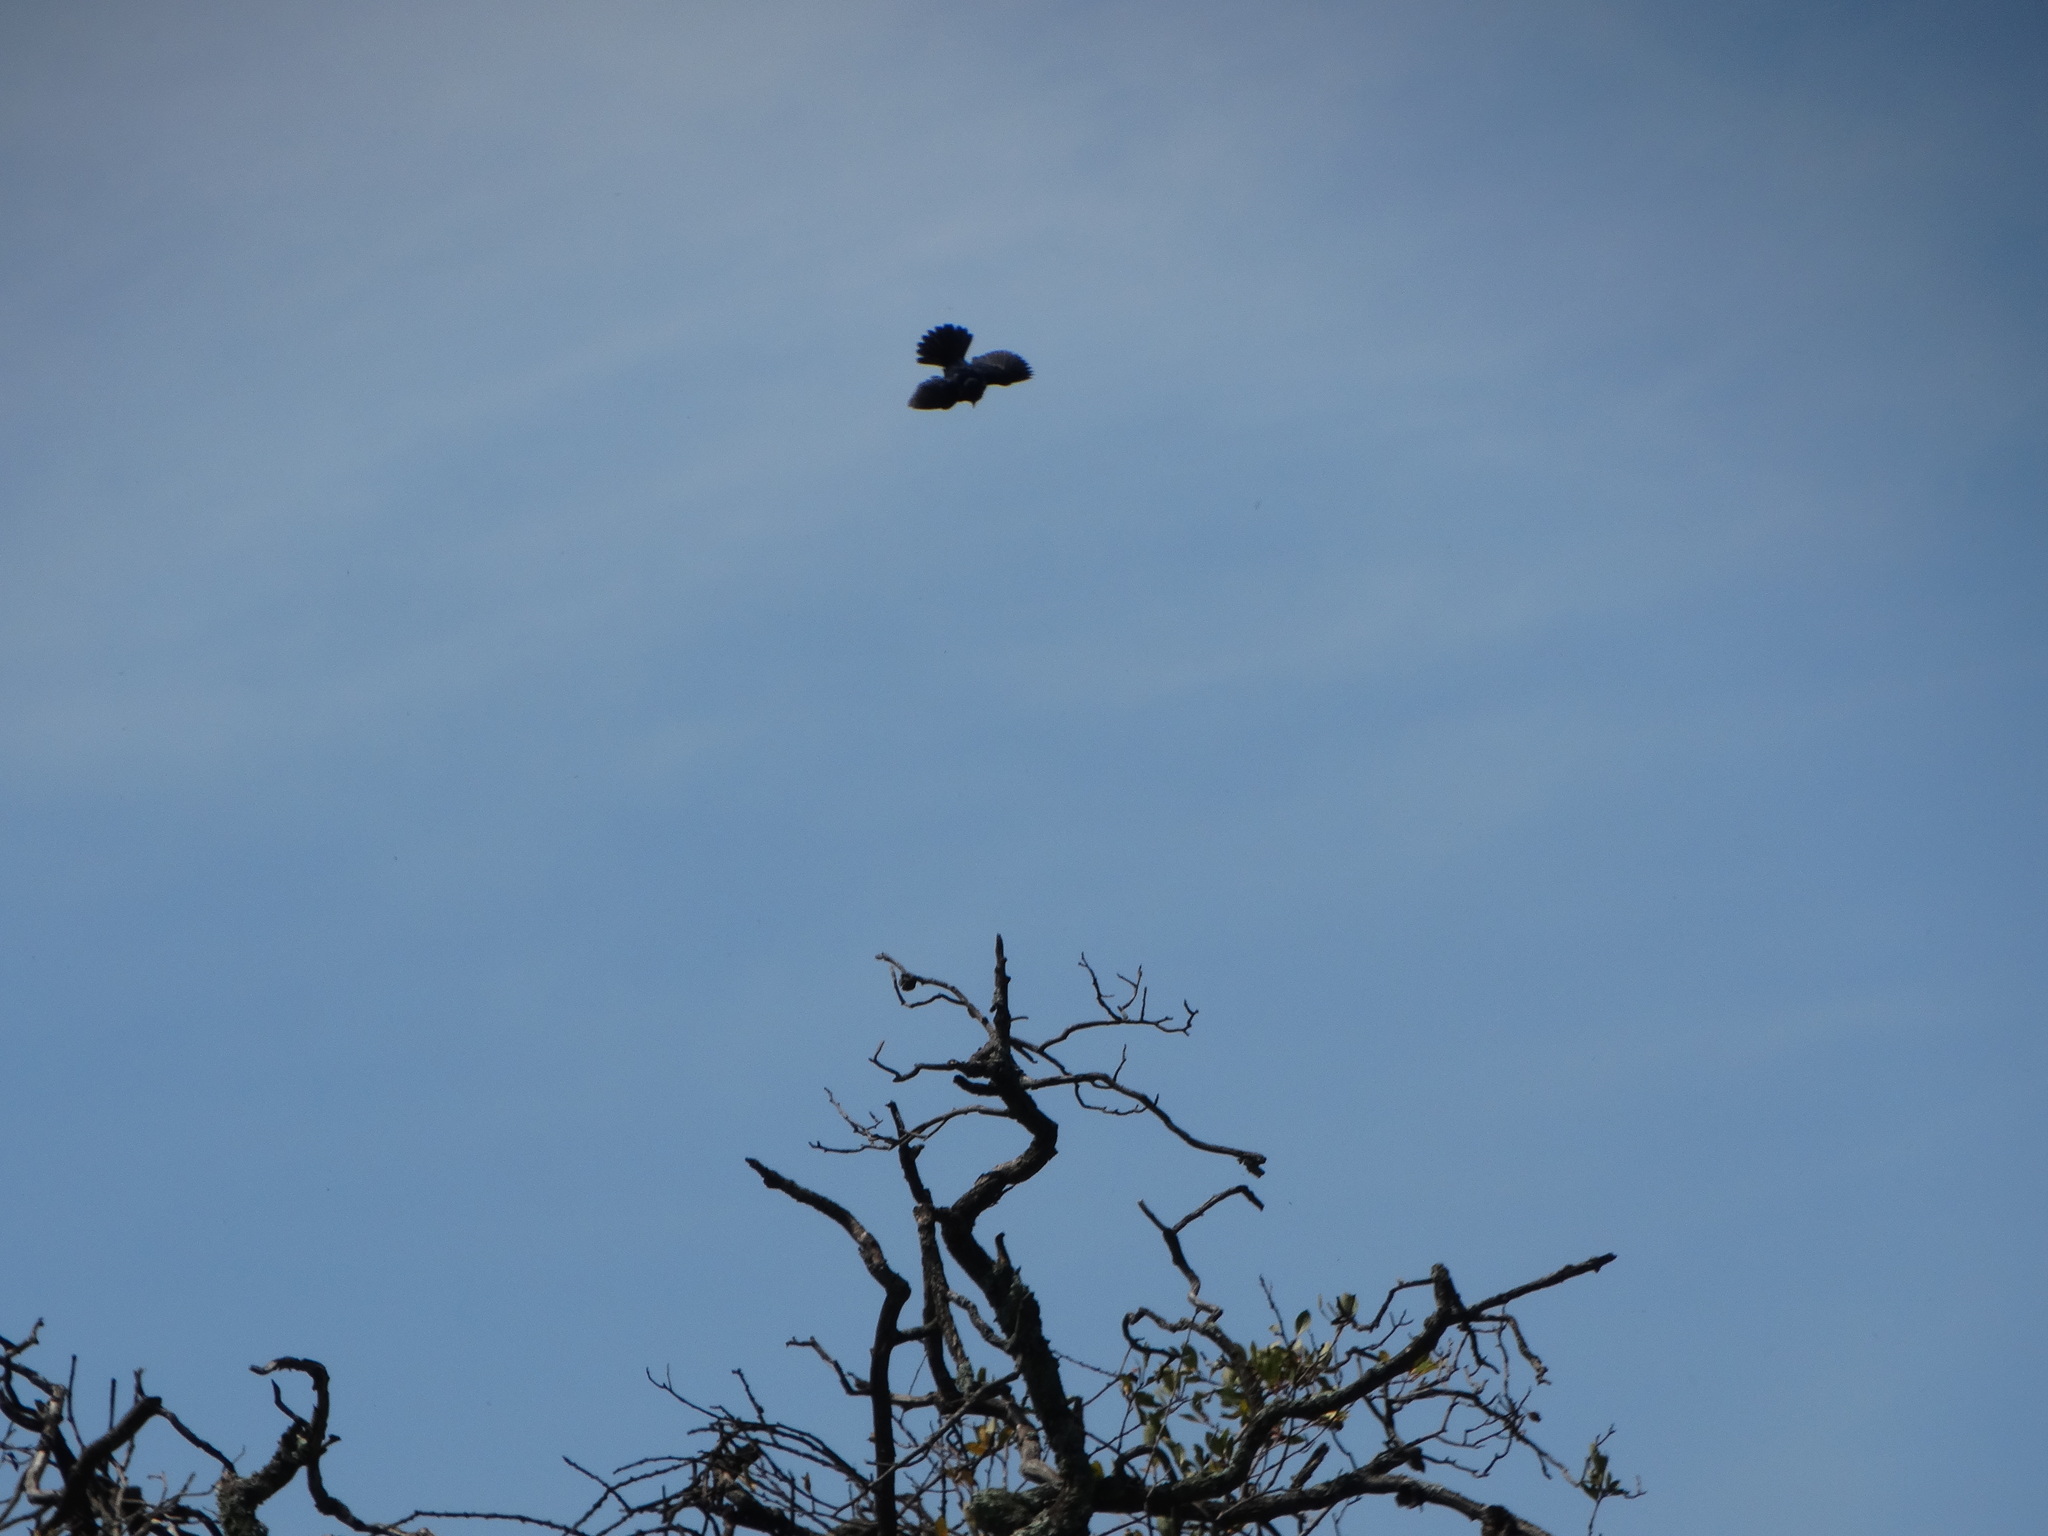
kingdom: Animalia
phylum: Chordata
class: Aves
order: Passeriformes
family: Thraupidae
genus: Volatinia
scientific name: Volatinia jacarina
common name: Blue-black grassquit
